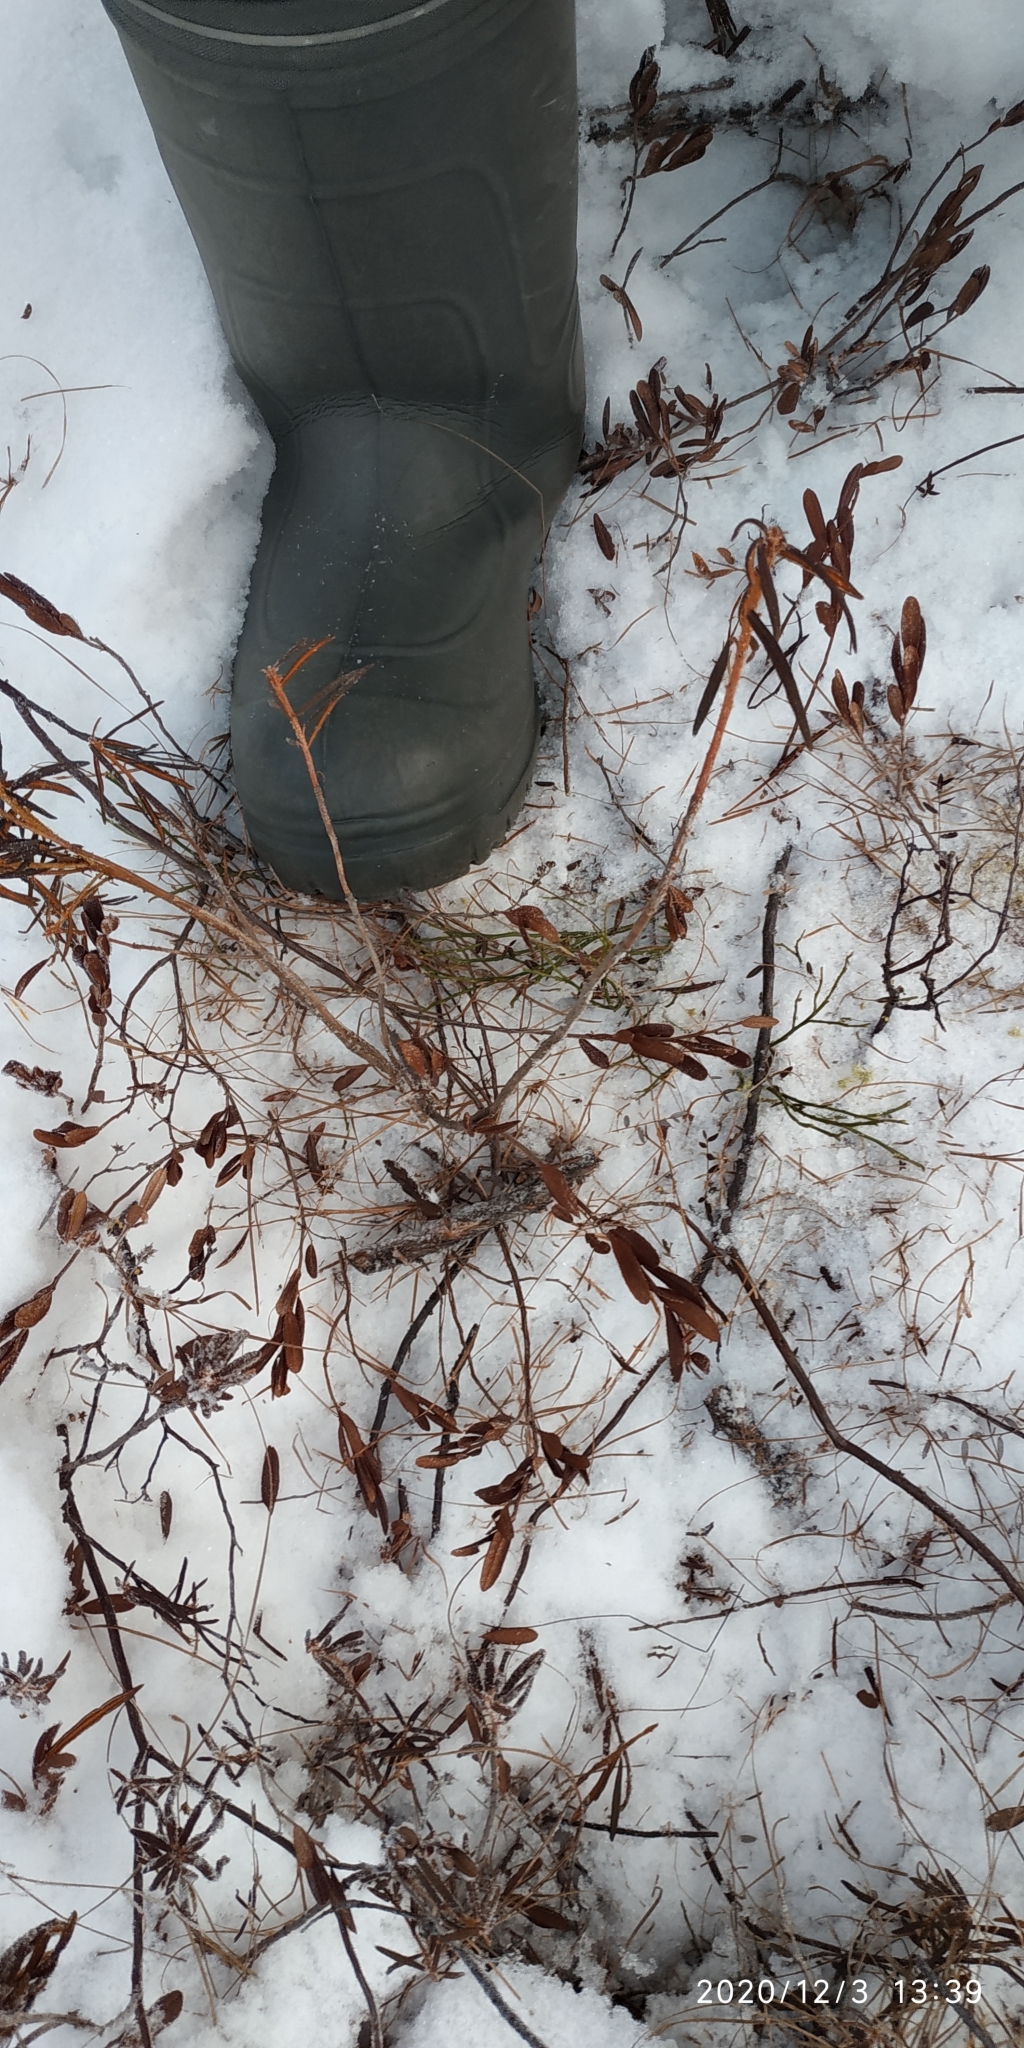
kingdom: Plantae
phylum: Tracheophyta
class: Magnoliopsida
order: Ericales
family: Ericaceae
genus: Chamaedaphne
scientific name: Chamaedaphne calyculata
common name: Leatherleaf
